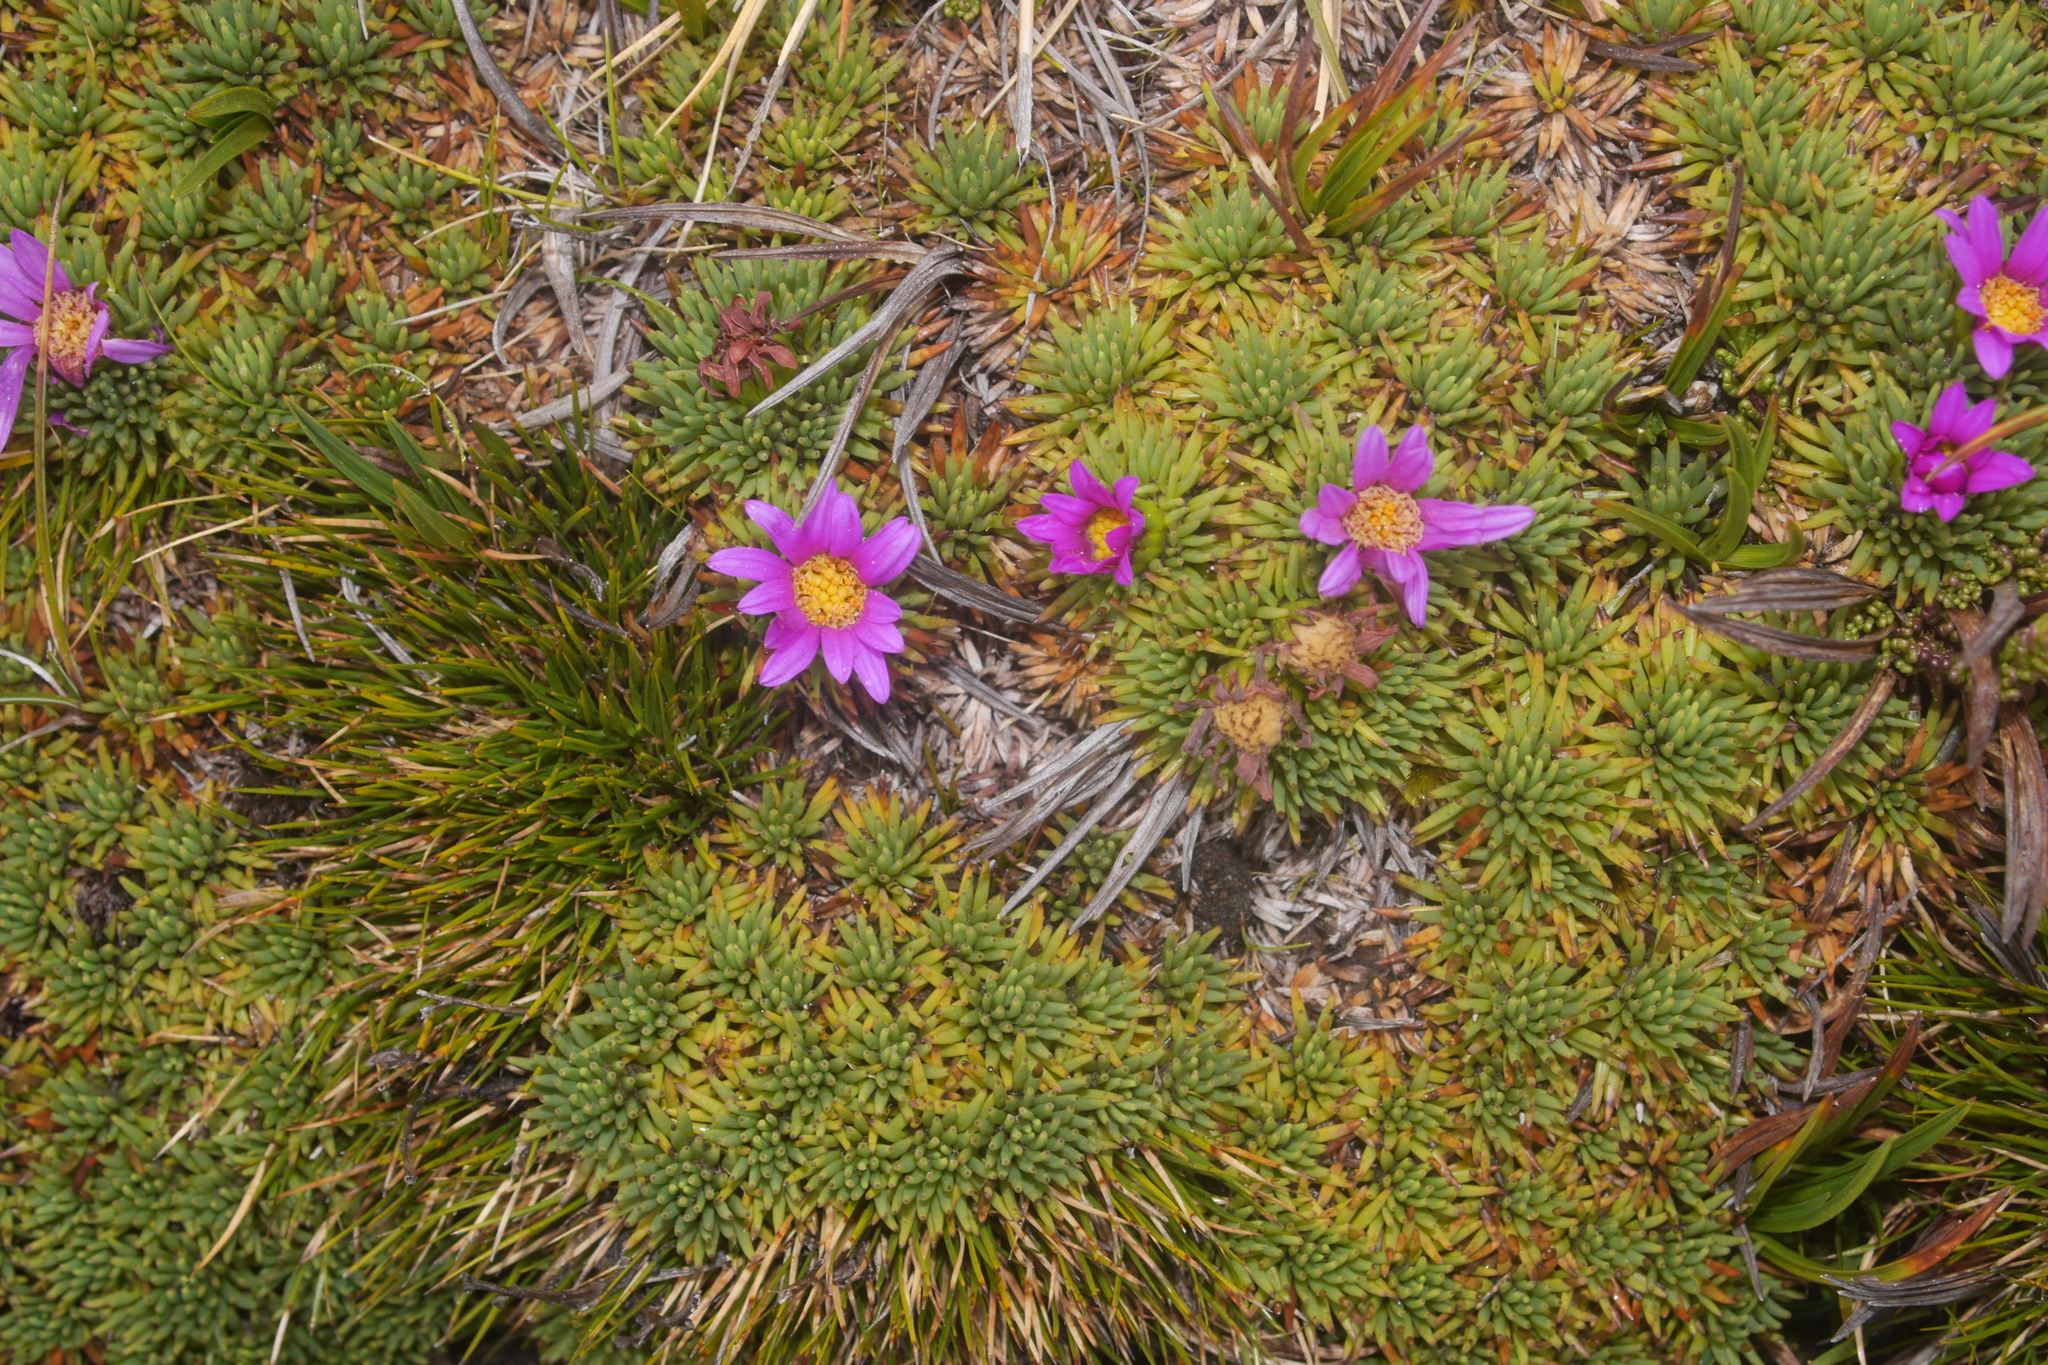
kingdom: Plantae
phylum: Tracheophyta
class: Magnoliopsida
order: Asterales
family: Asteraceae
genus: Werneria
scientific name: Werneria rosea
